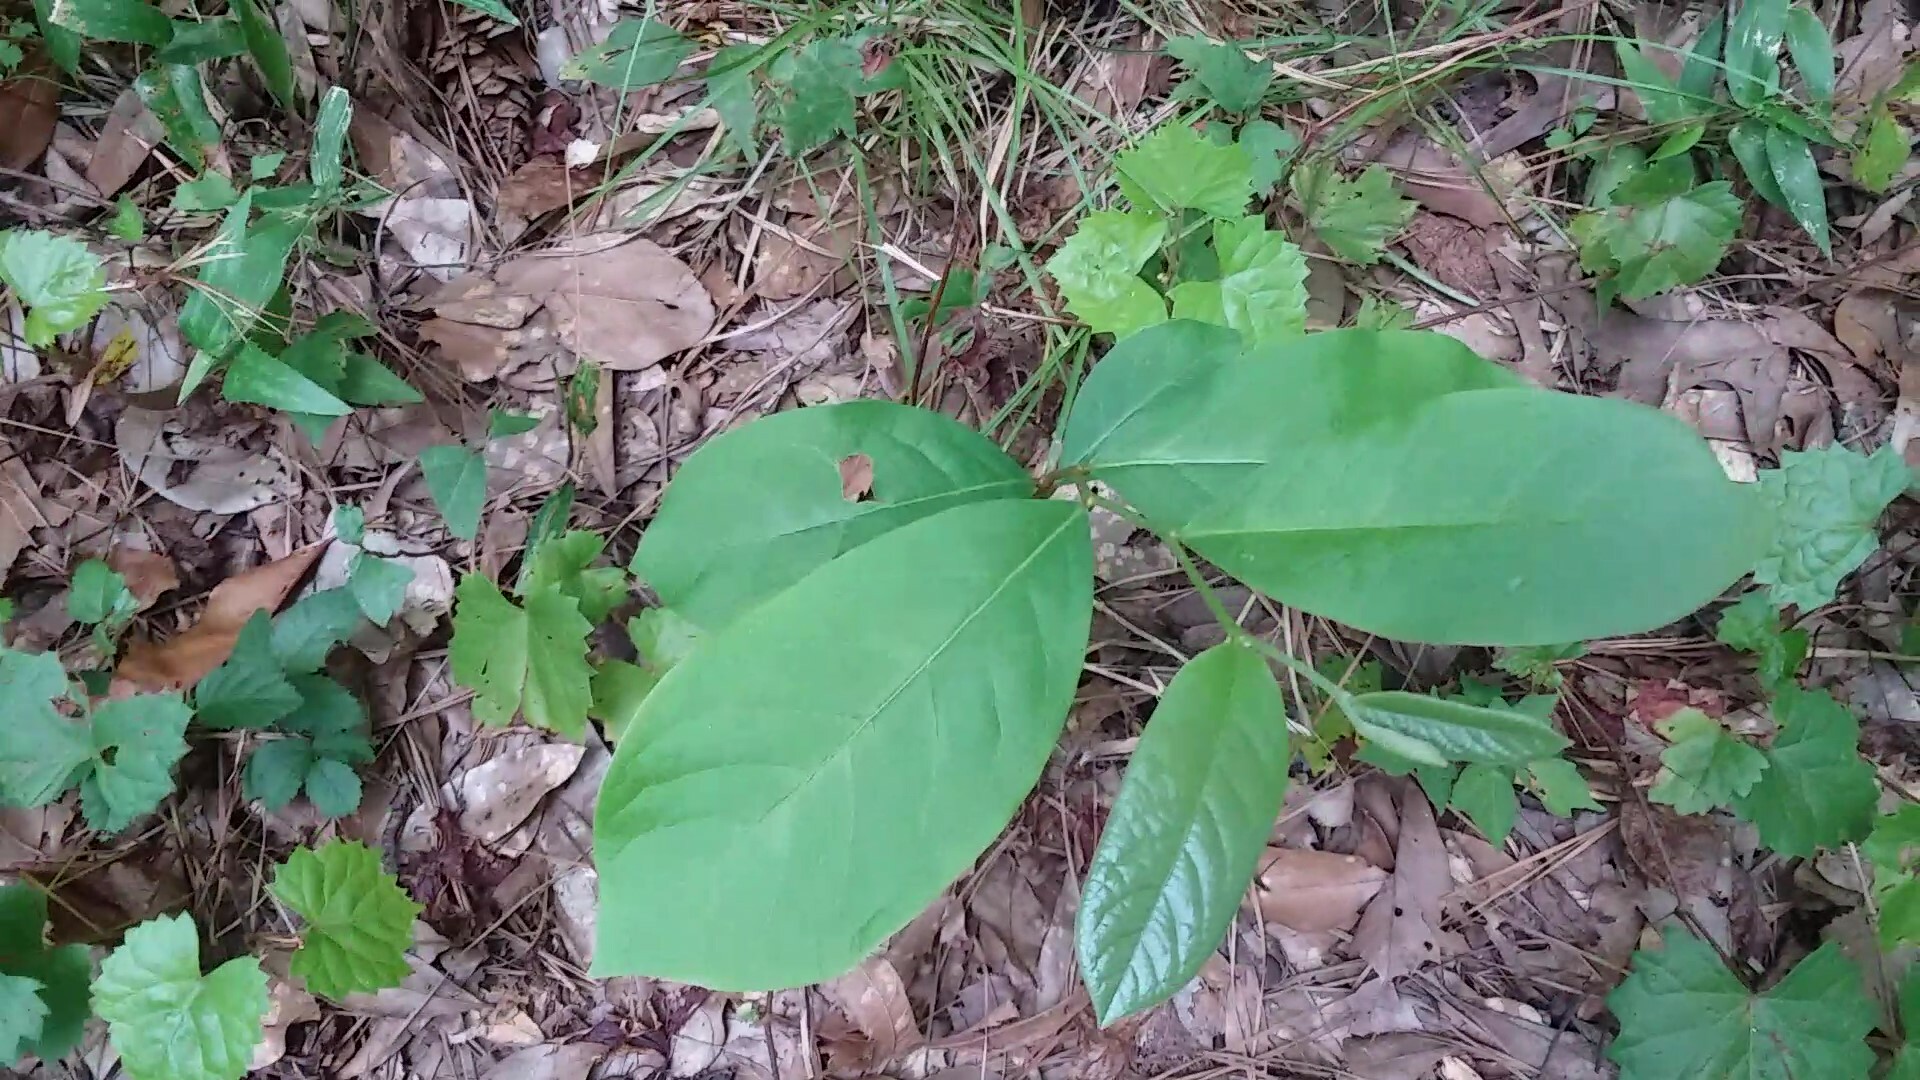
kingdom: Plantae
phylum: Tracheophyta
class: Magnoliopsida
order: Magnoliales
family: Annonaceae
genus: Asimina
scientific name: Asimina parviflora
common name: Dwarf pawpaw
